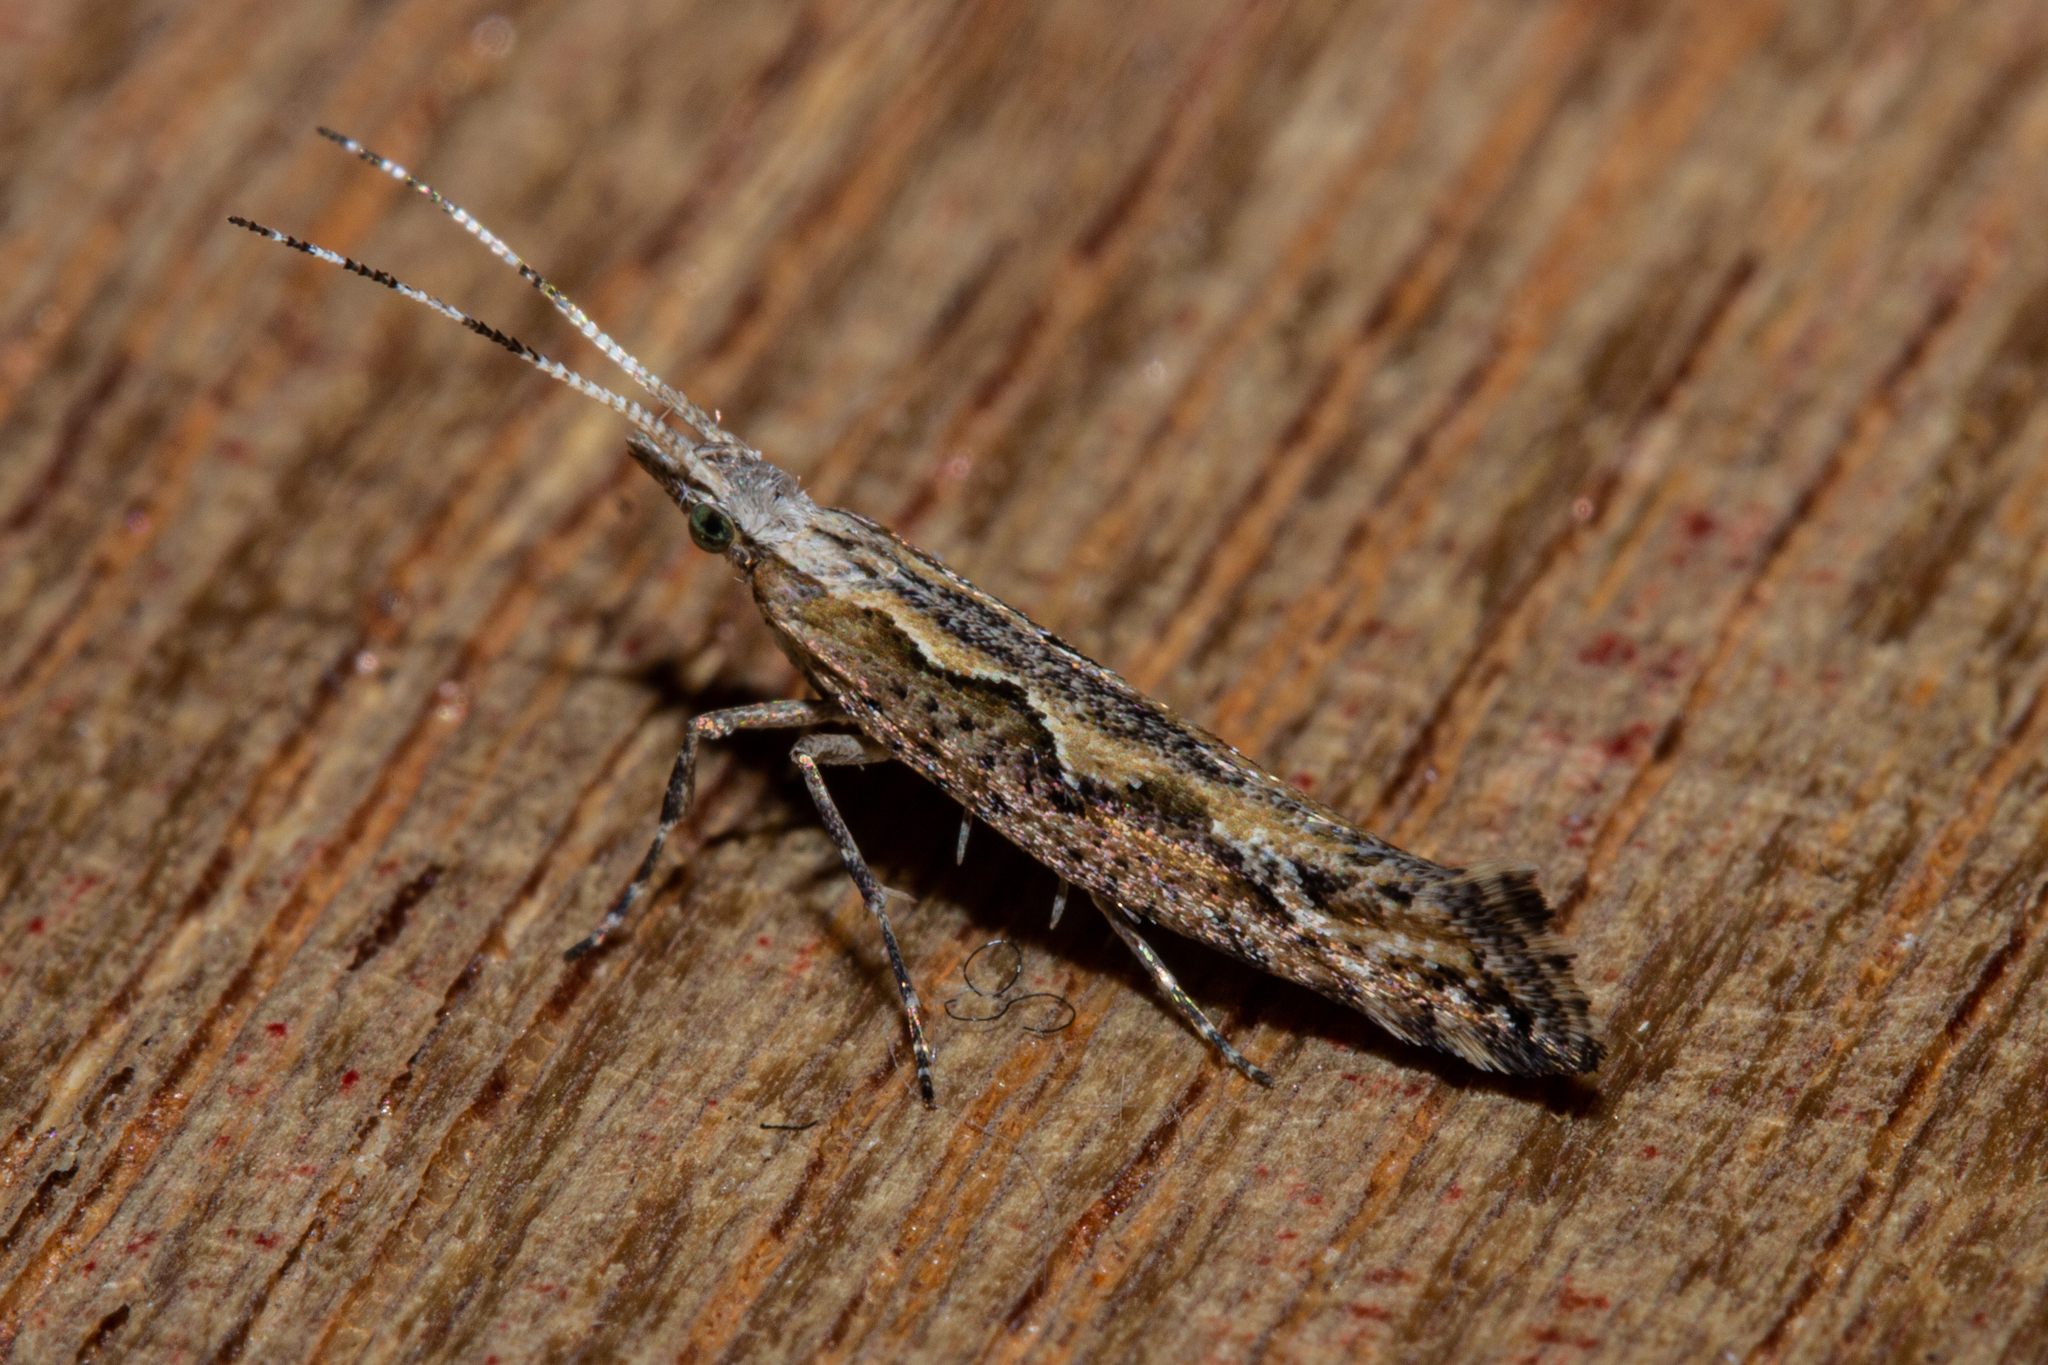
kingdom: Animalia
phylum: Arthropoda
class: Insecta
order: Lepidoptera
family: Plutellidae
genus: Plutella
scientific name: Plutella xylostella
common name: Diamond-back moth
